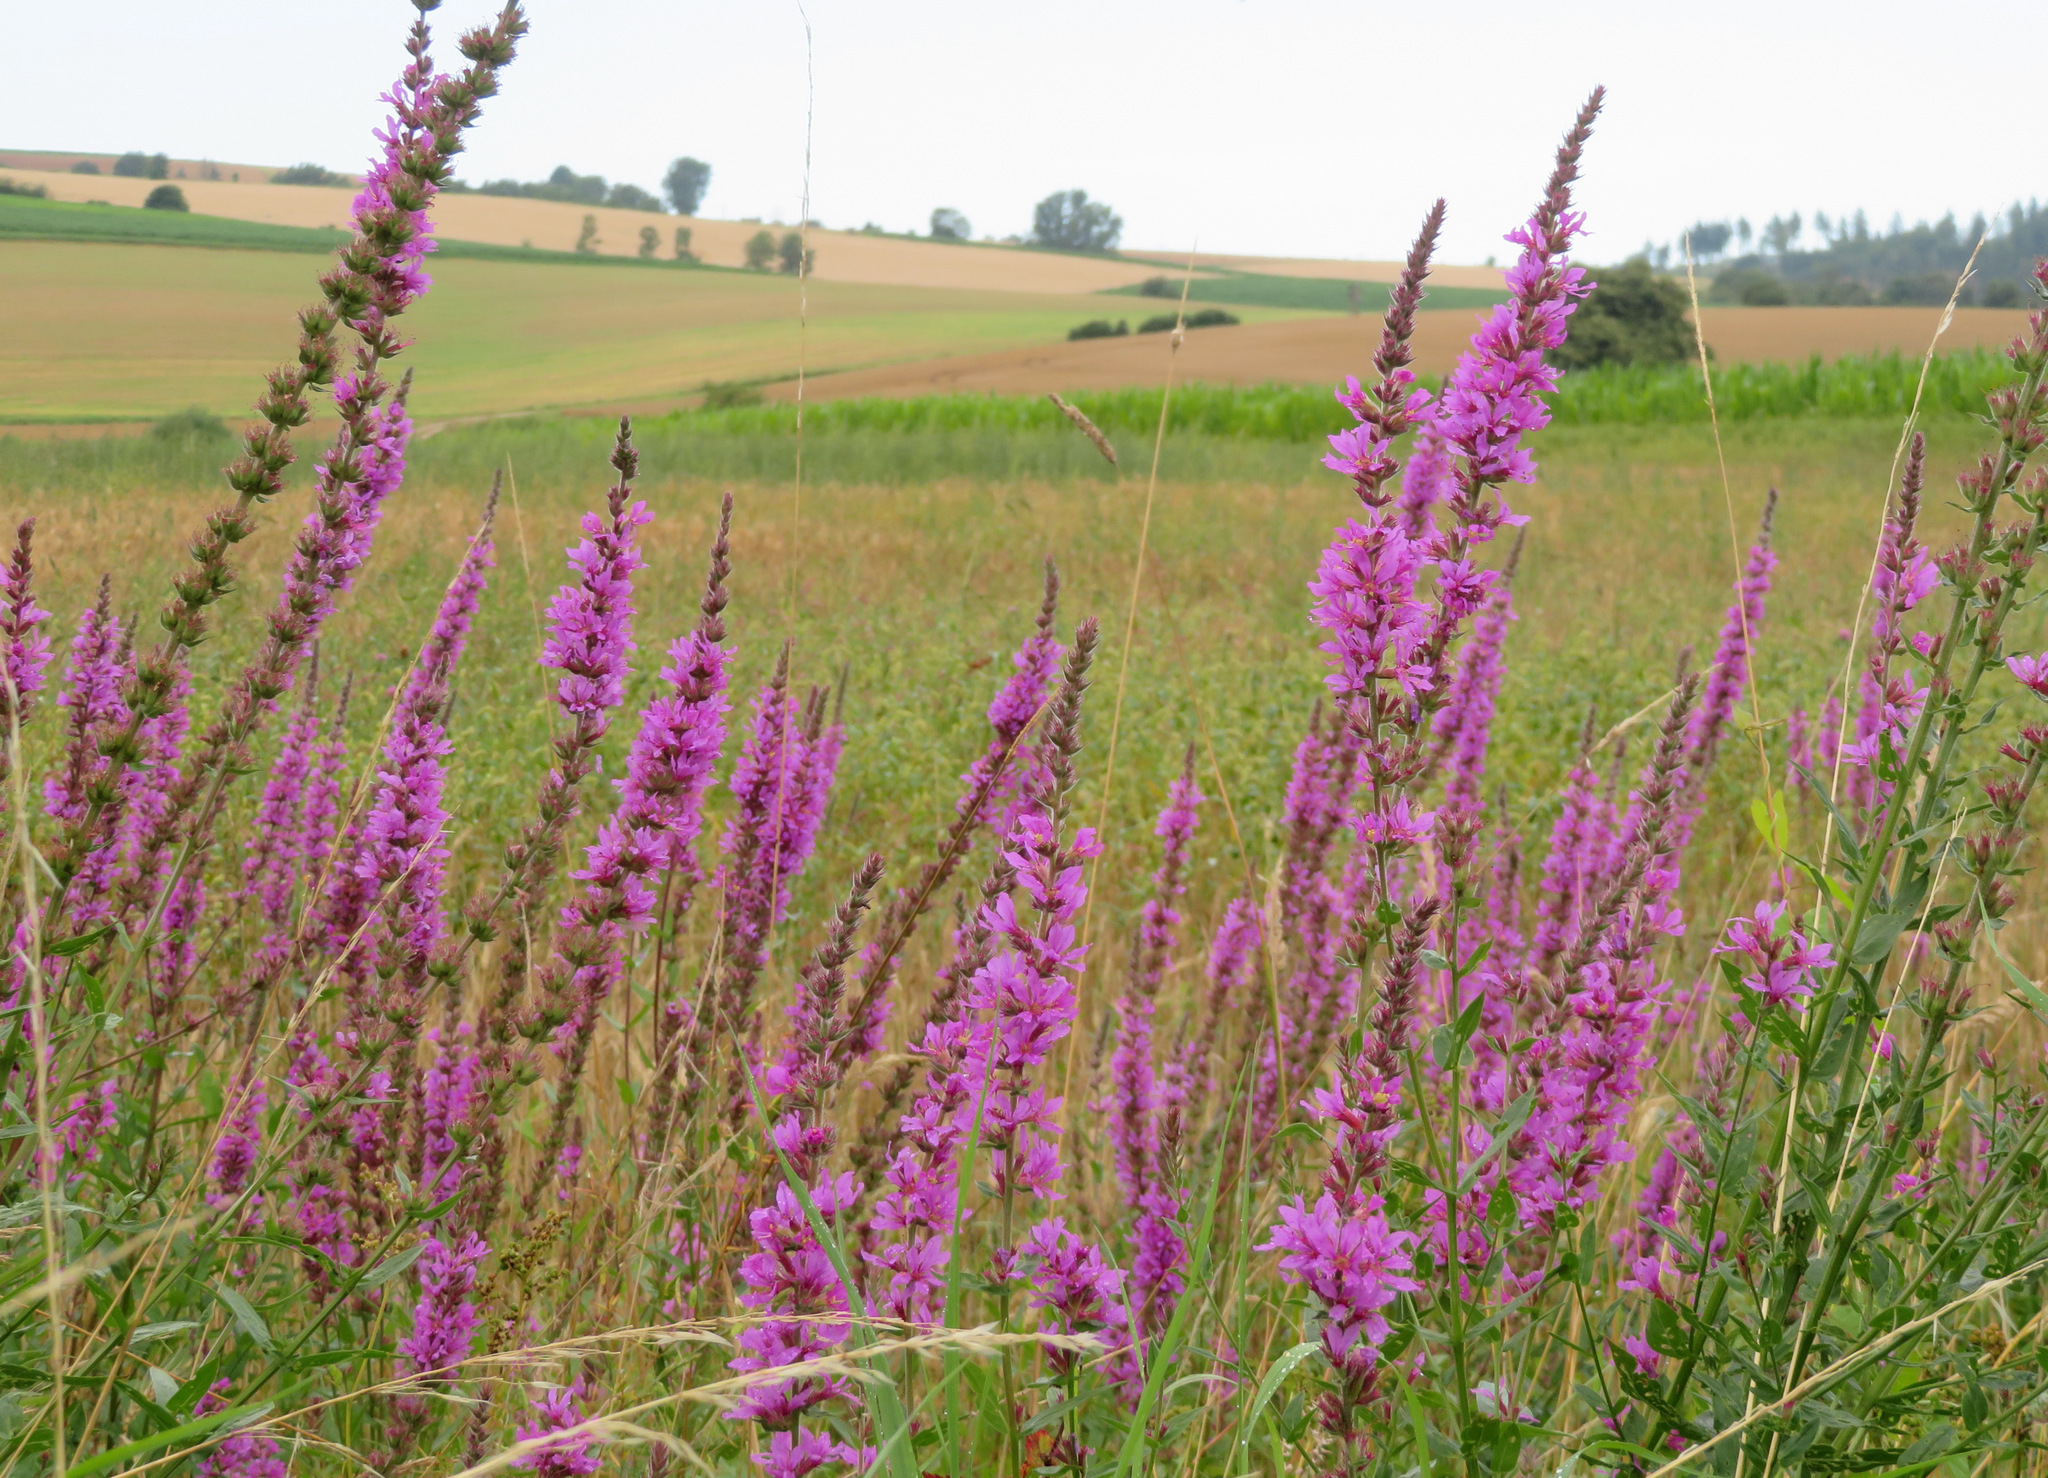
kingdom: Plantae
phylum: Tracheophyta
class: Magnoliopsida
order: Myrtales
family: Lythraceae
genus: Lythrum
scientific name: Lythrum salicaria
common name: Purple loosestrife
